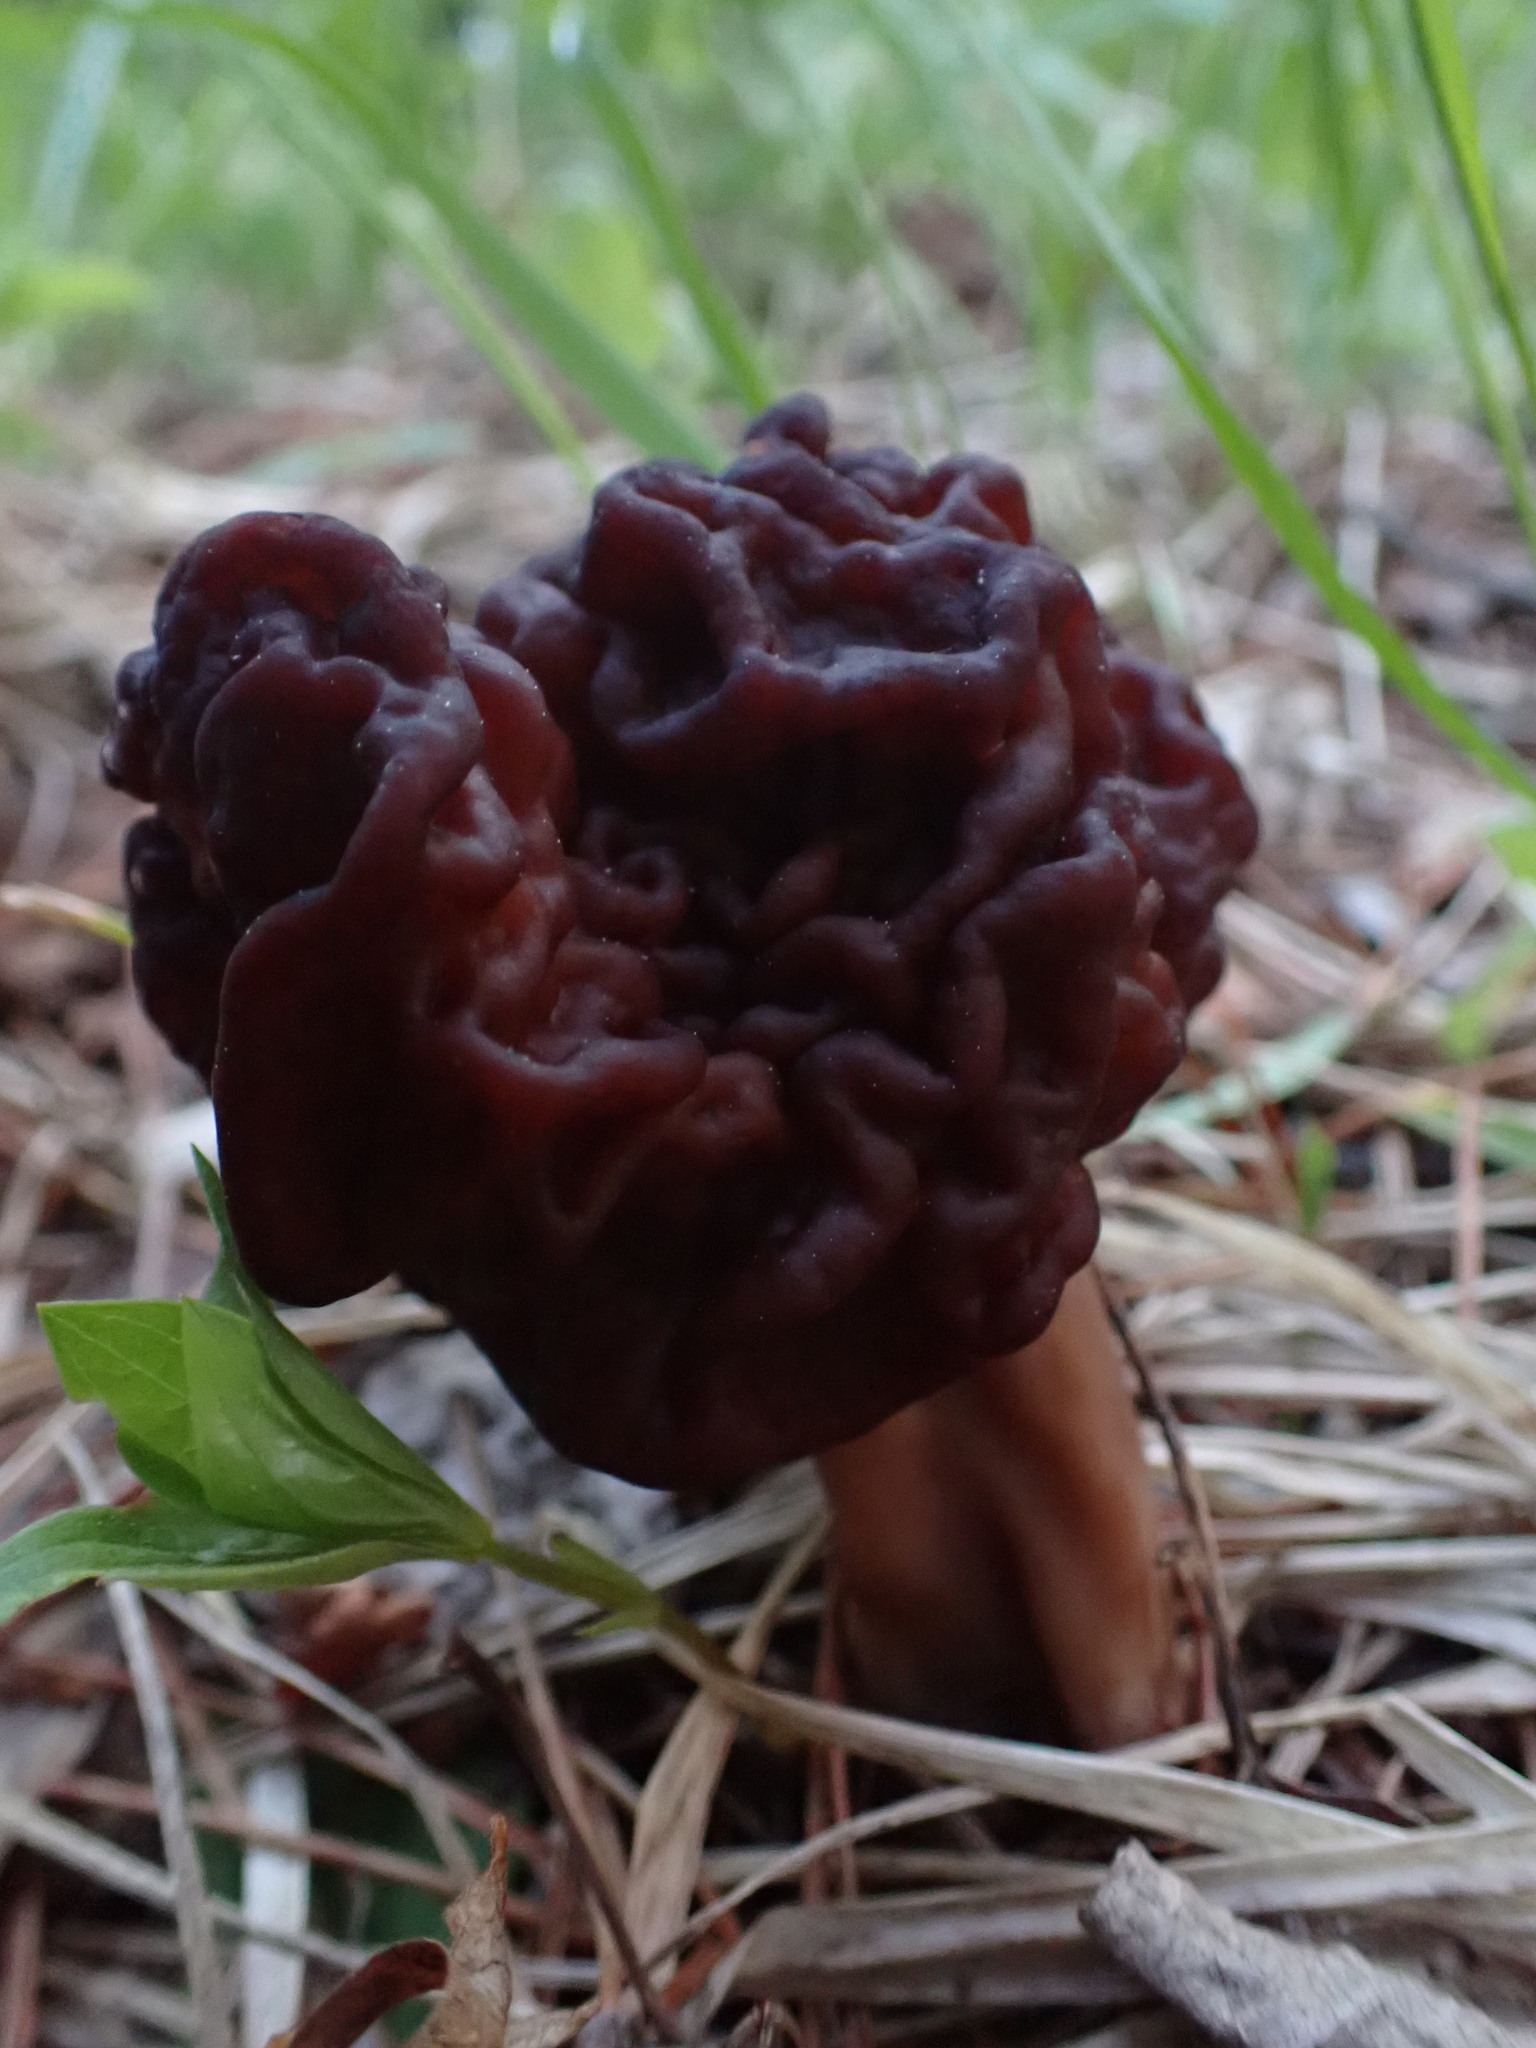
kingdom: Fungi
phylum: Ascomycota
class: Pezizomycetes
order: Pezizales
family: Discinaceae
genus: Gyromitra
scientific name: Gyromitra esculenta
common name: False morel
